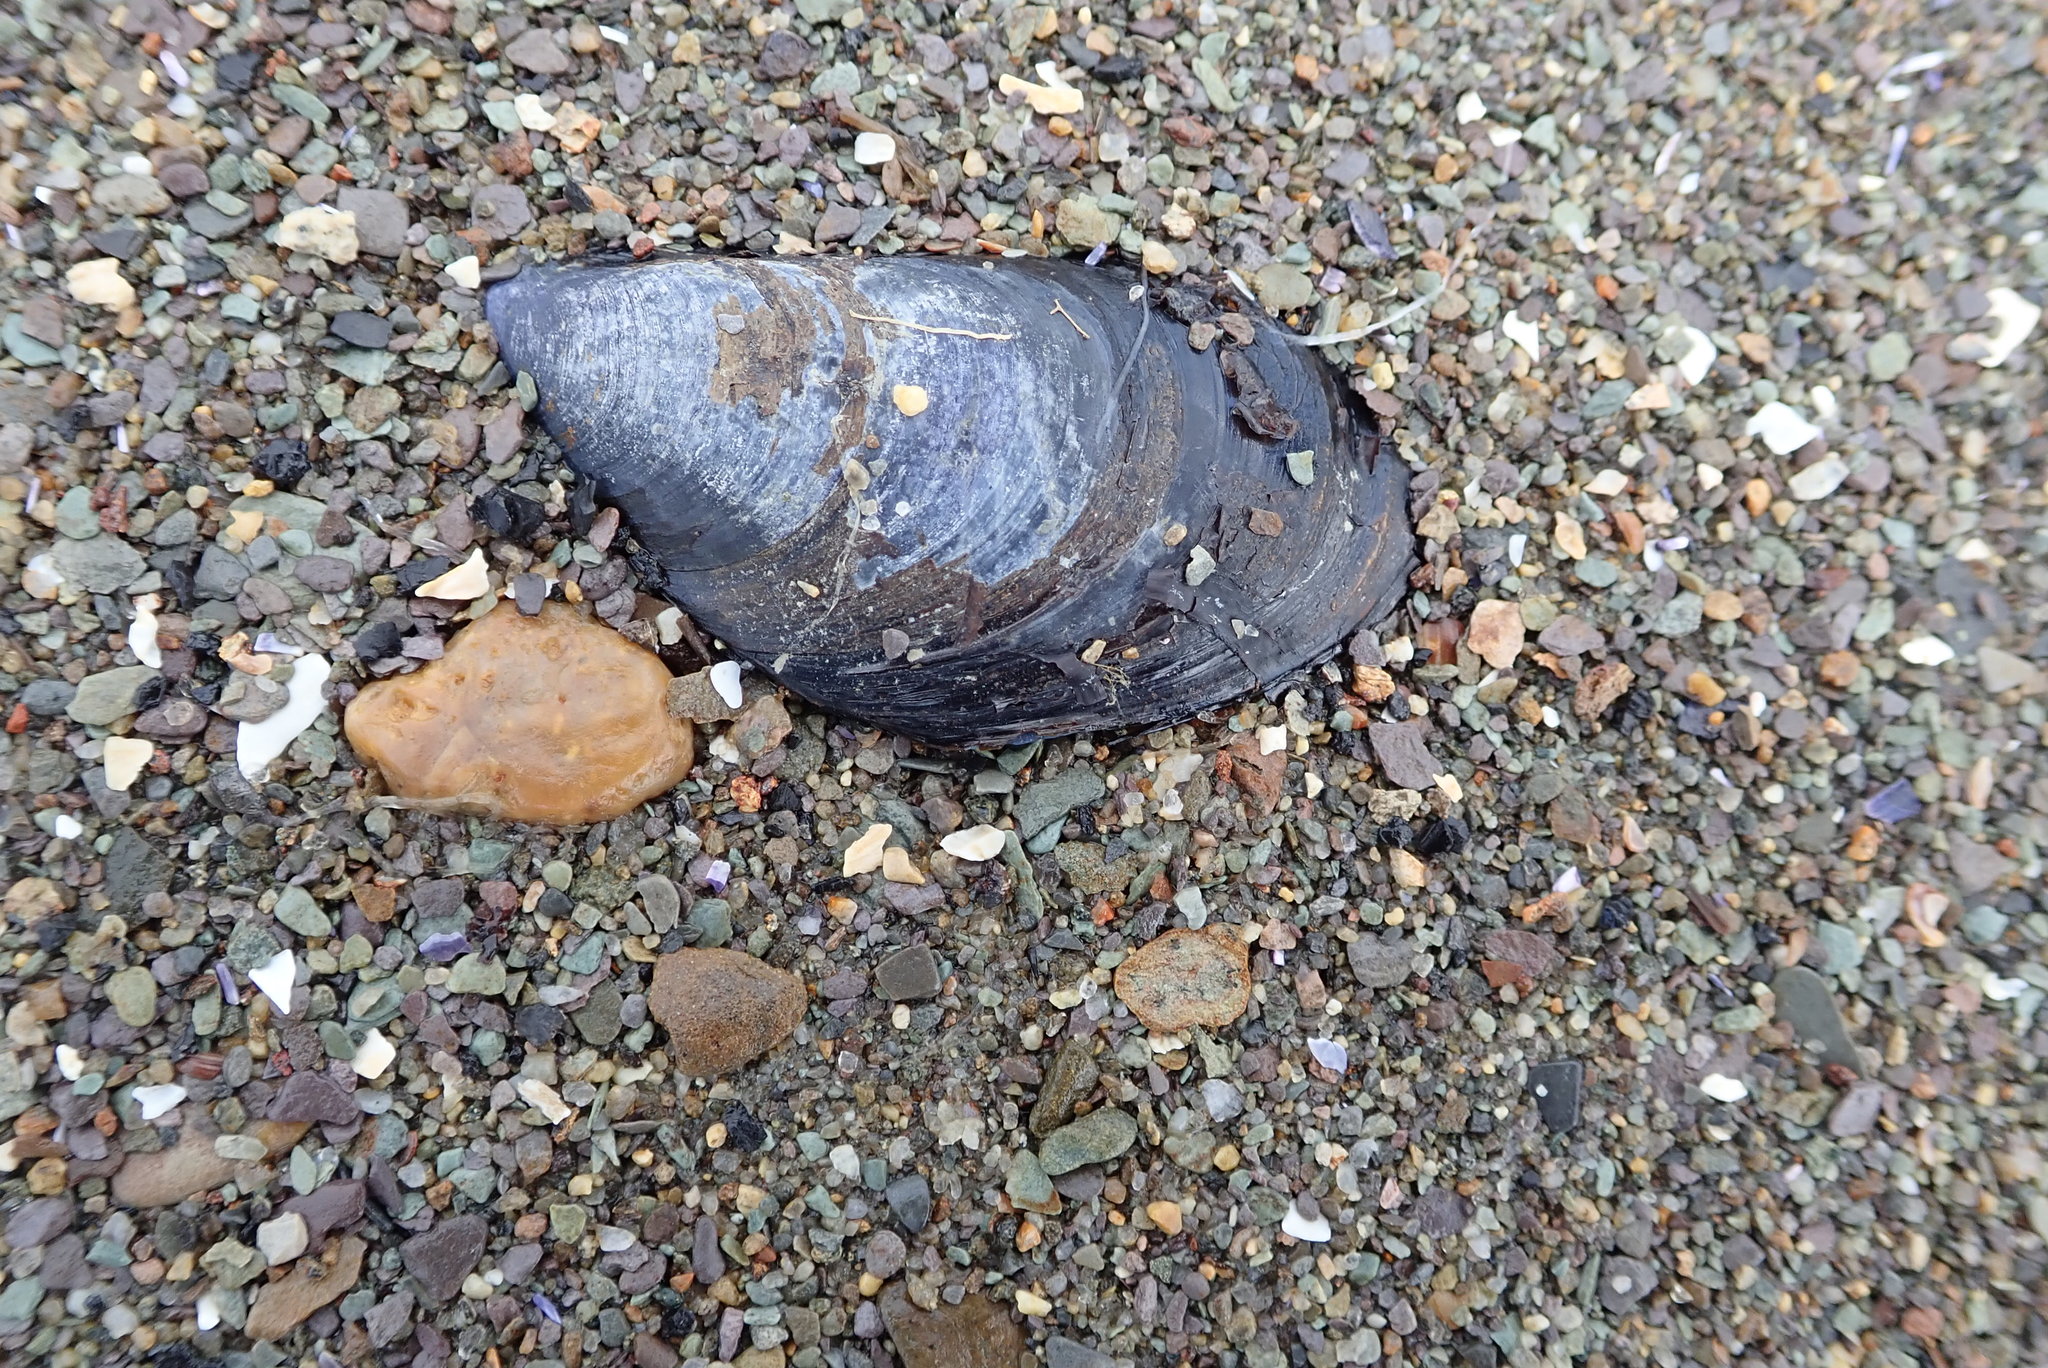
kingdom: Animalia
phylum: Mollusca
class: Bivalvia
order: Mytilida
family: Mytilidae
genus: Mytilus
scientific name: Mytilus edulis
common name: Blue mussel
